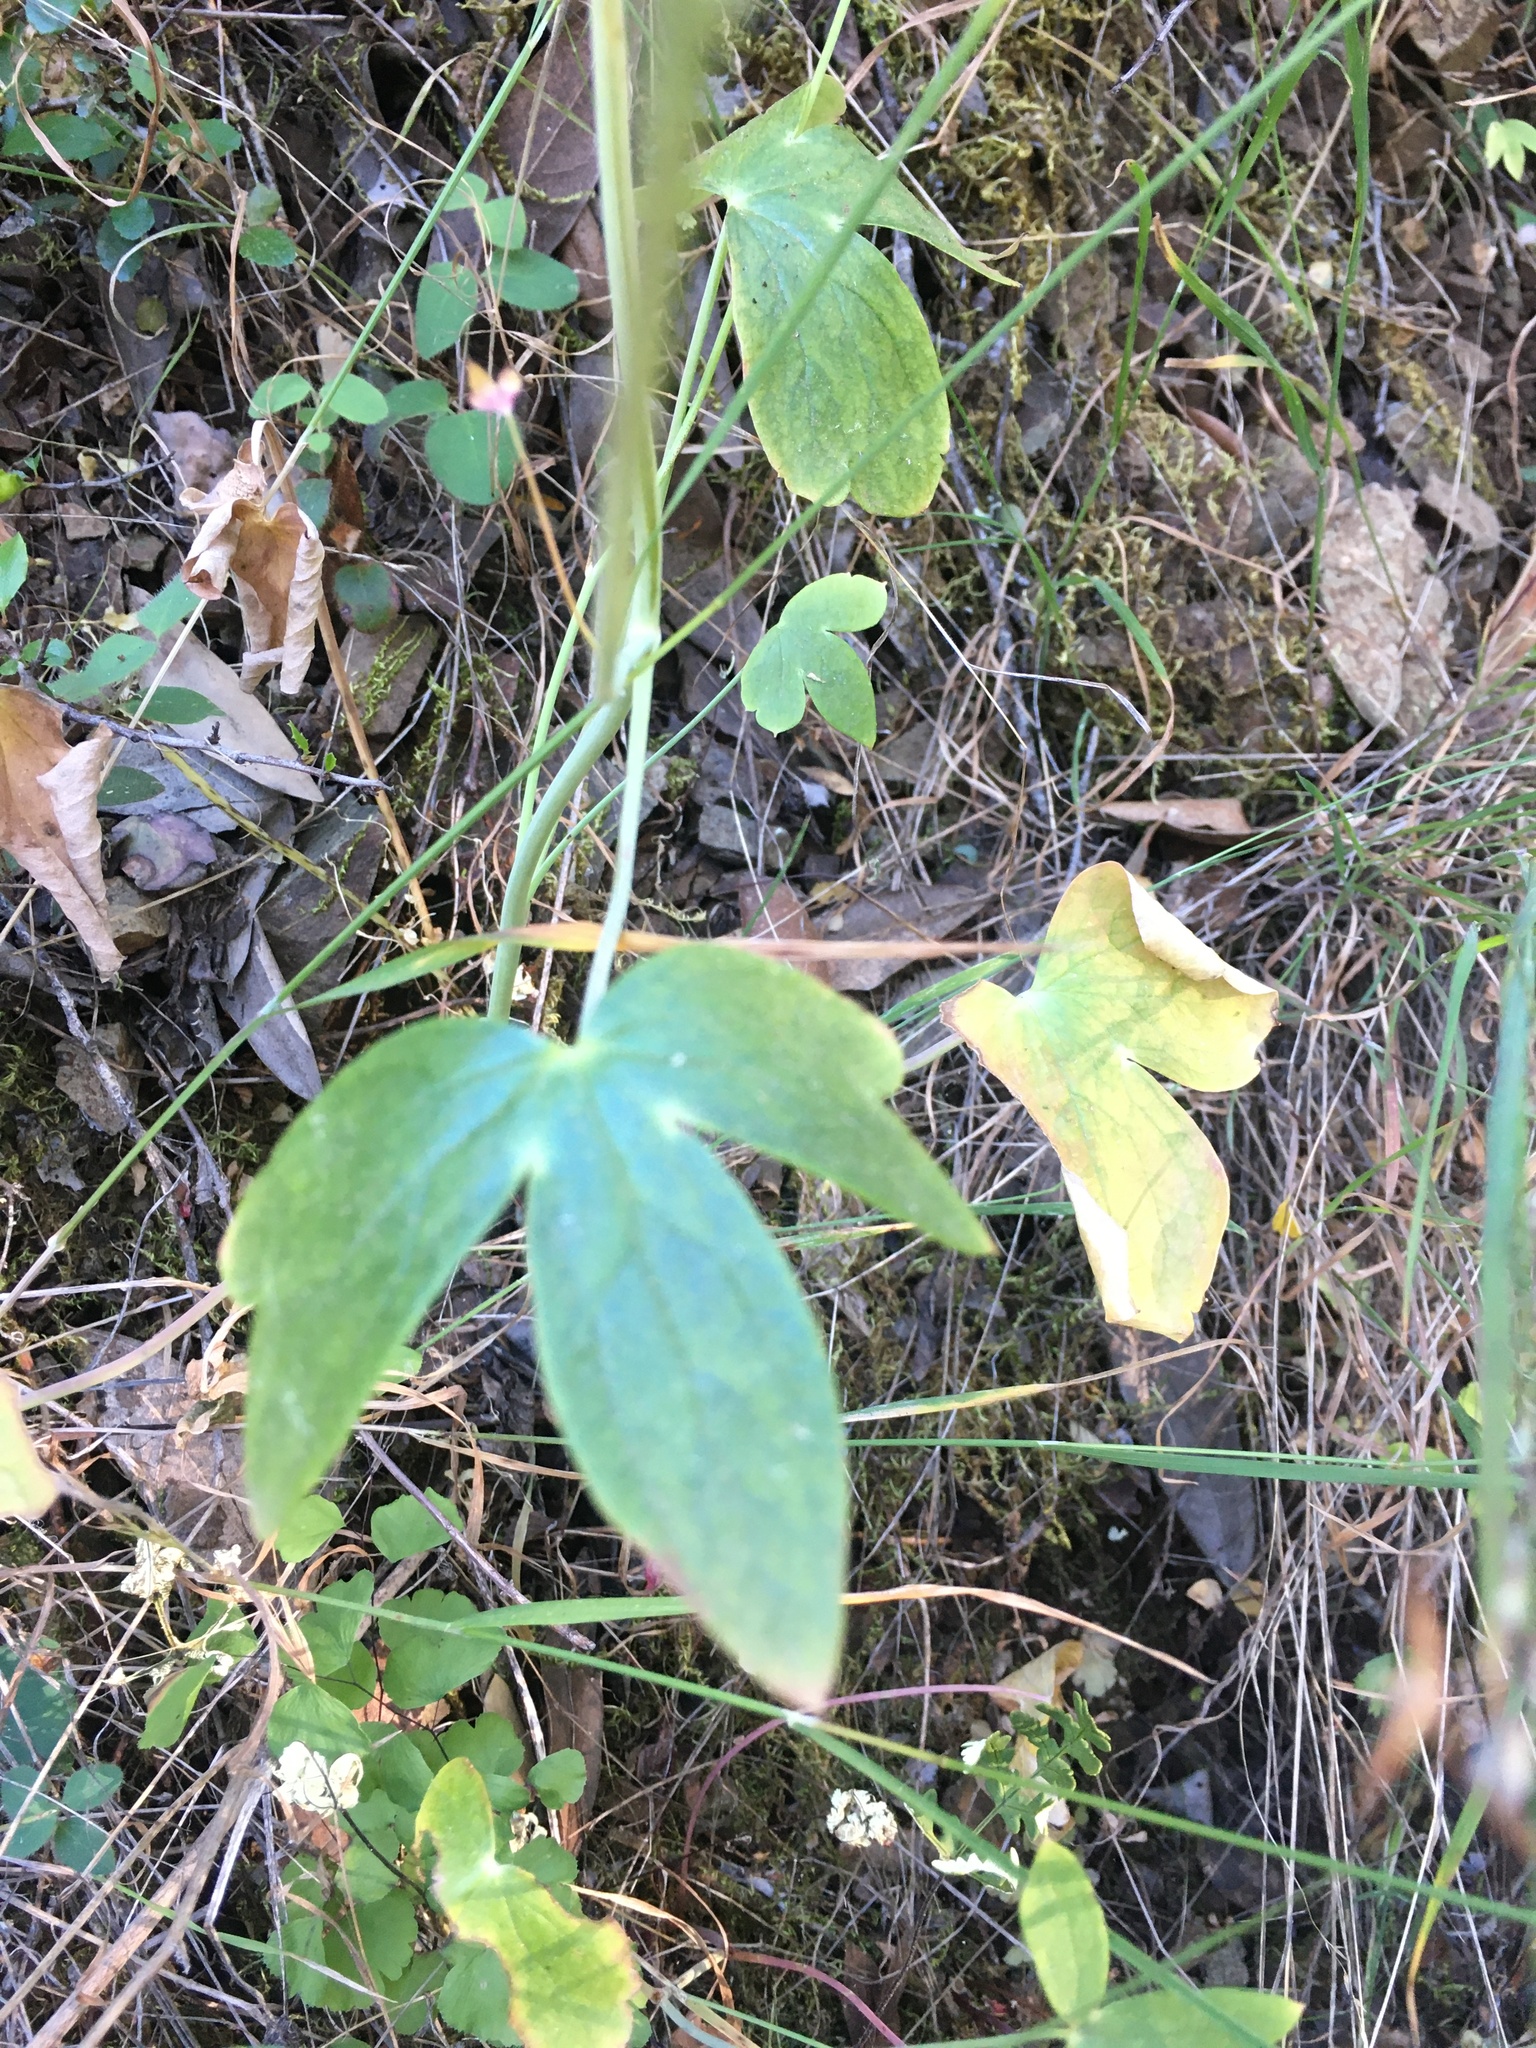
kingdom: Plantae
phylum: Tracheophyta
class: Magnoliopsida
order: Ranunculales
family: Ranunculaceae
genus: Delphinium
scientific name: Delphinium nudicaule
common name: Red larkspur
